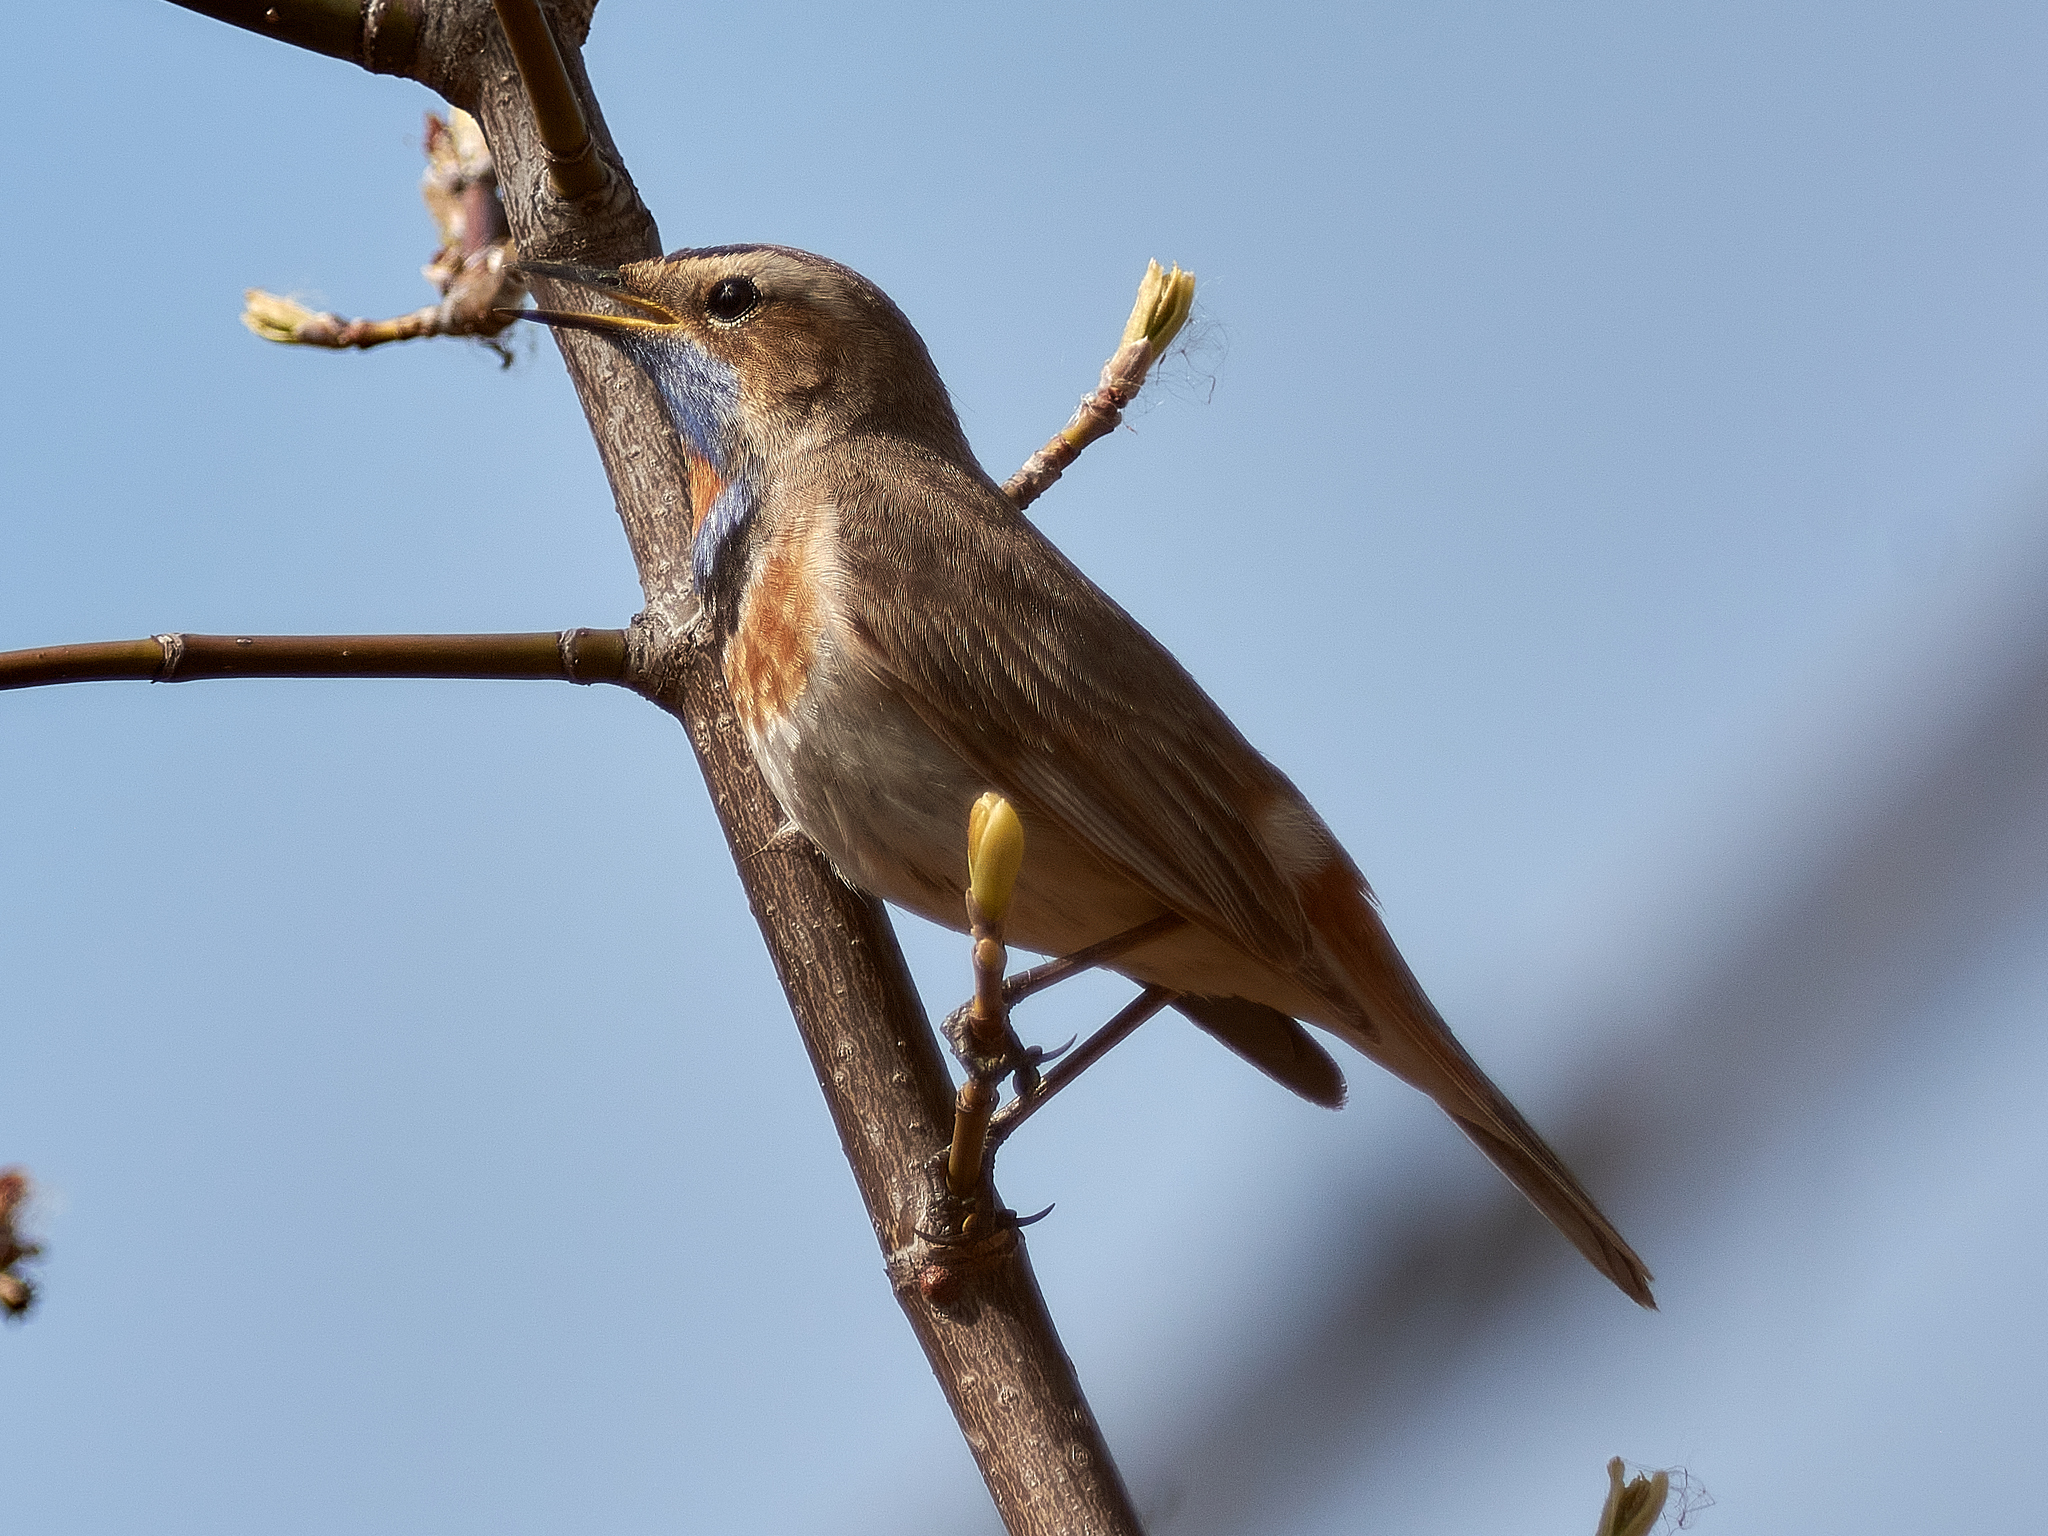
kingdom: Animalia
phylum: Chordata
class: Aves
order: Passeriformes
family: Muscicapidae
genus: Luscinia
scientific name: Luscinia svecica
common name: Bluethroat
